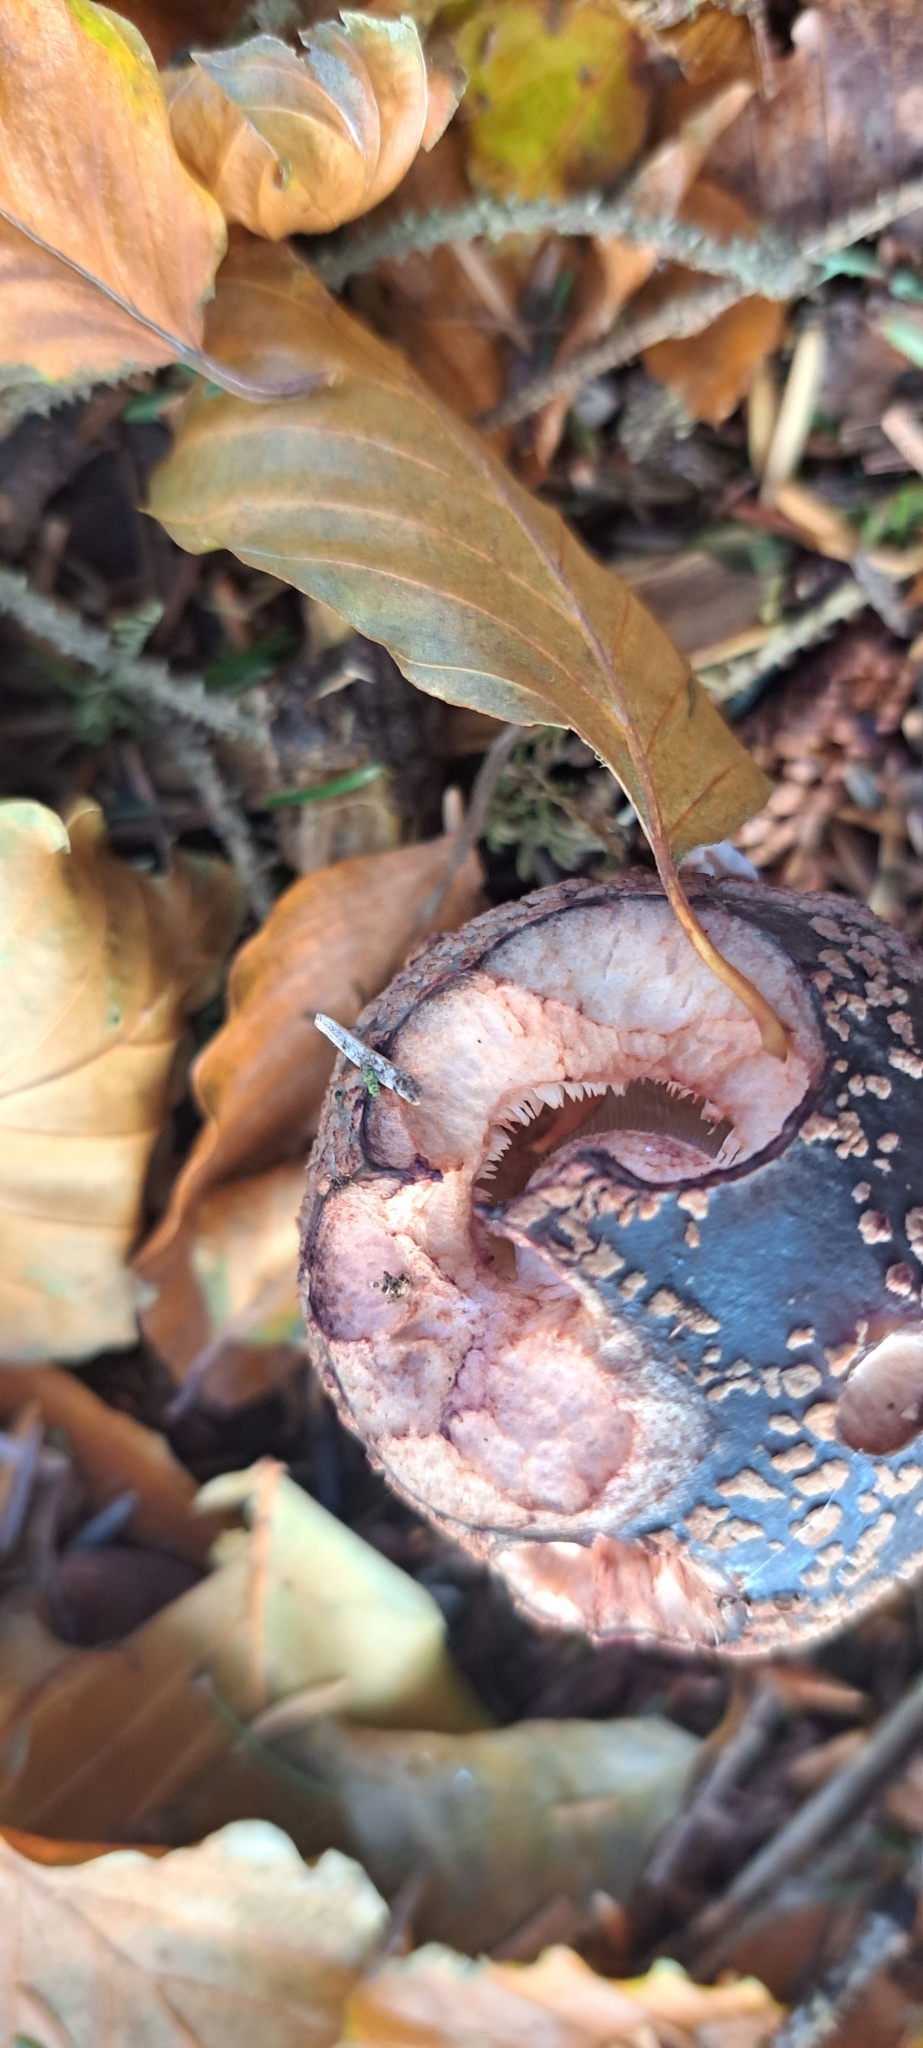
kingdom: Fungi
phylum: Basidiomycota
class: Agaricomycetes
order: Agaricales
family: Amanitaceae
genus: Amanita
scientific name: Amanita rubescens
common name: Blusher
